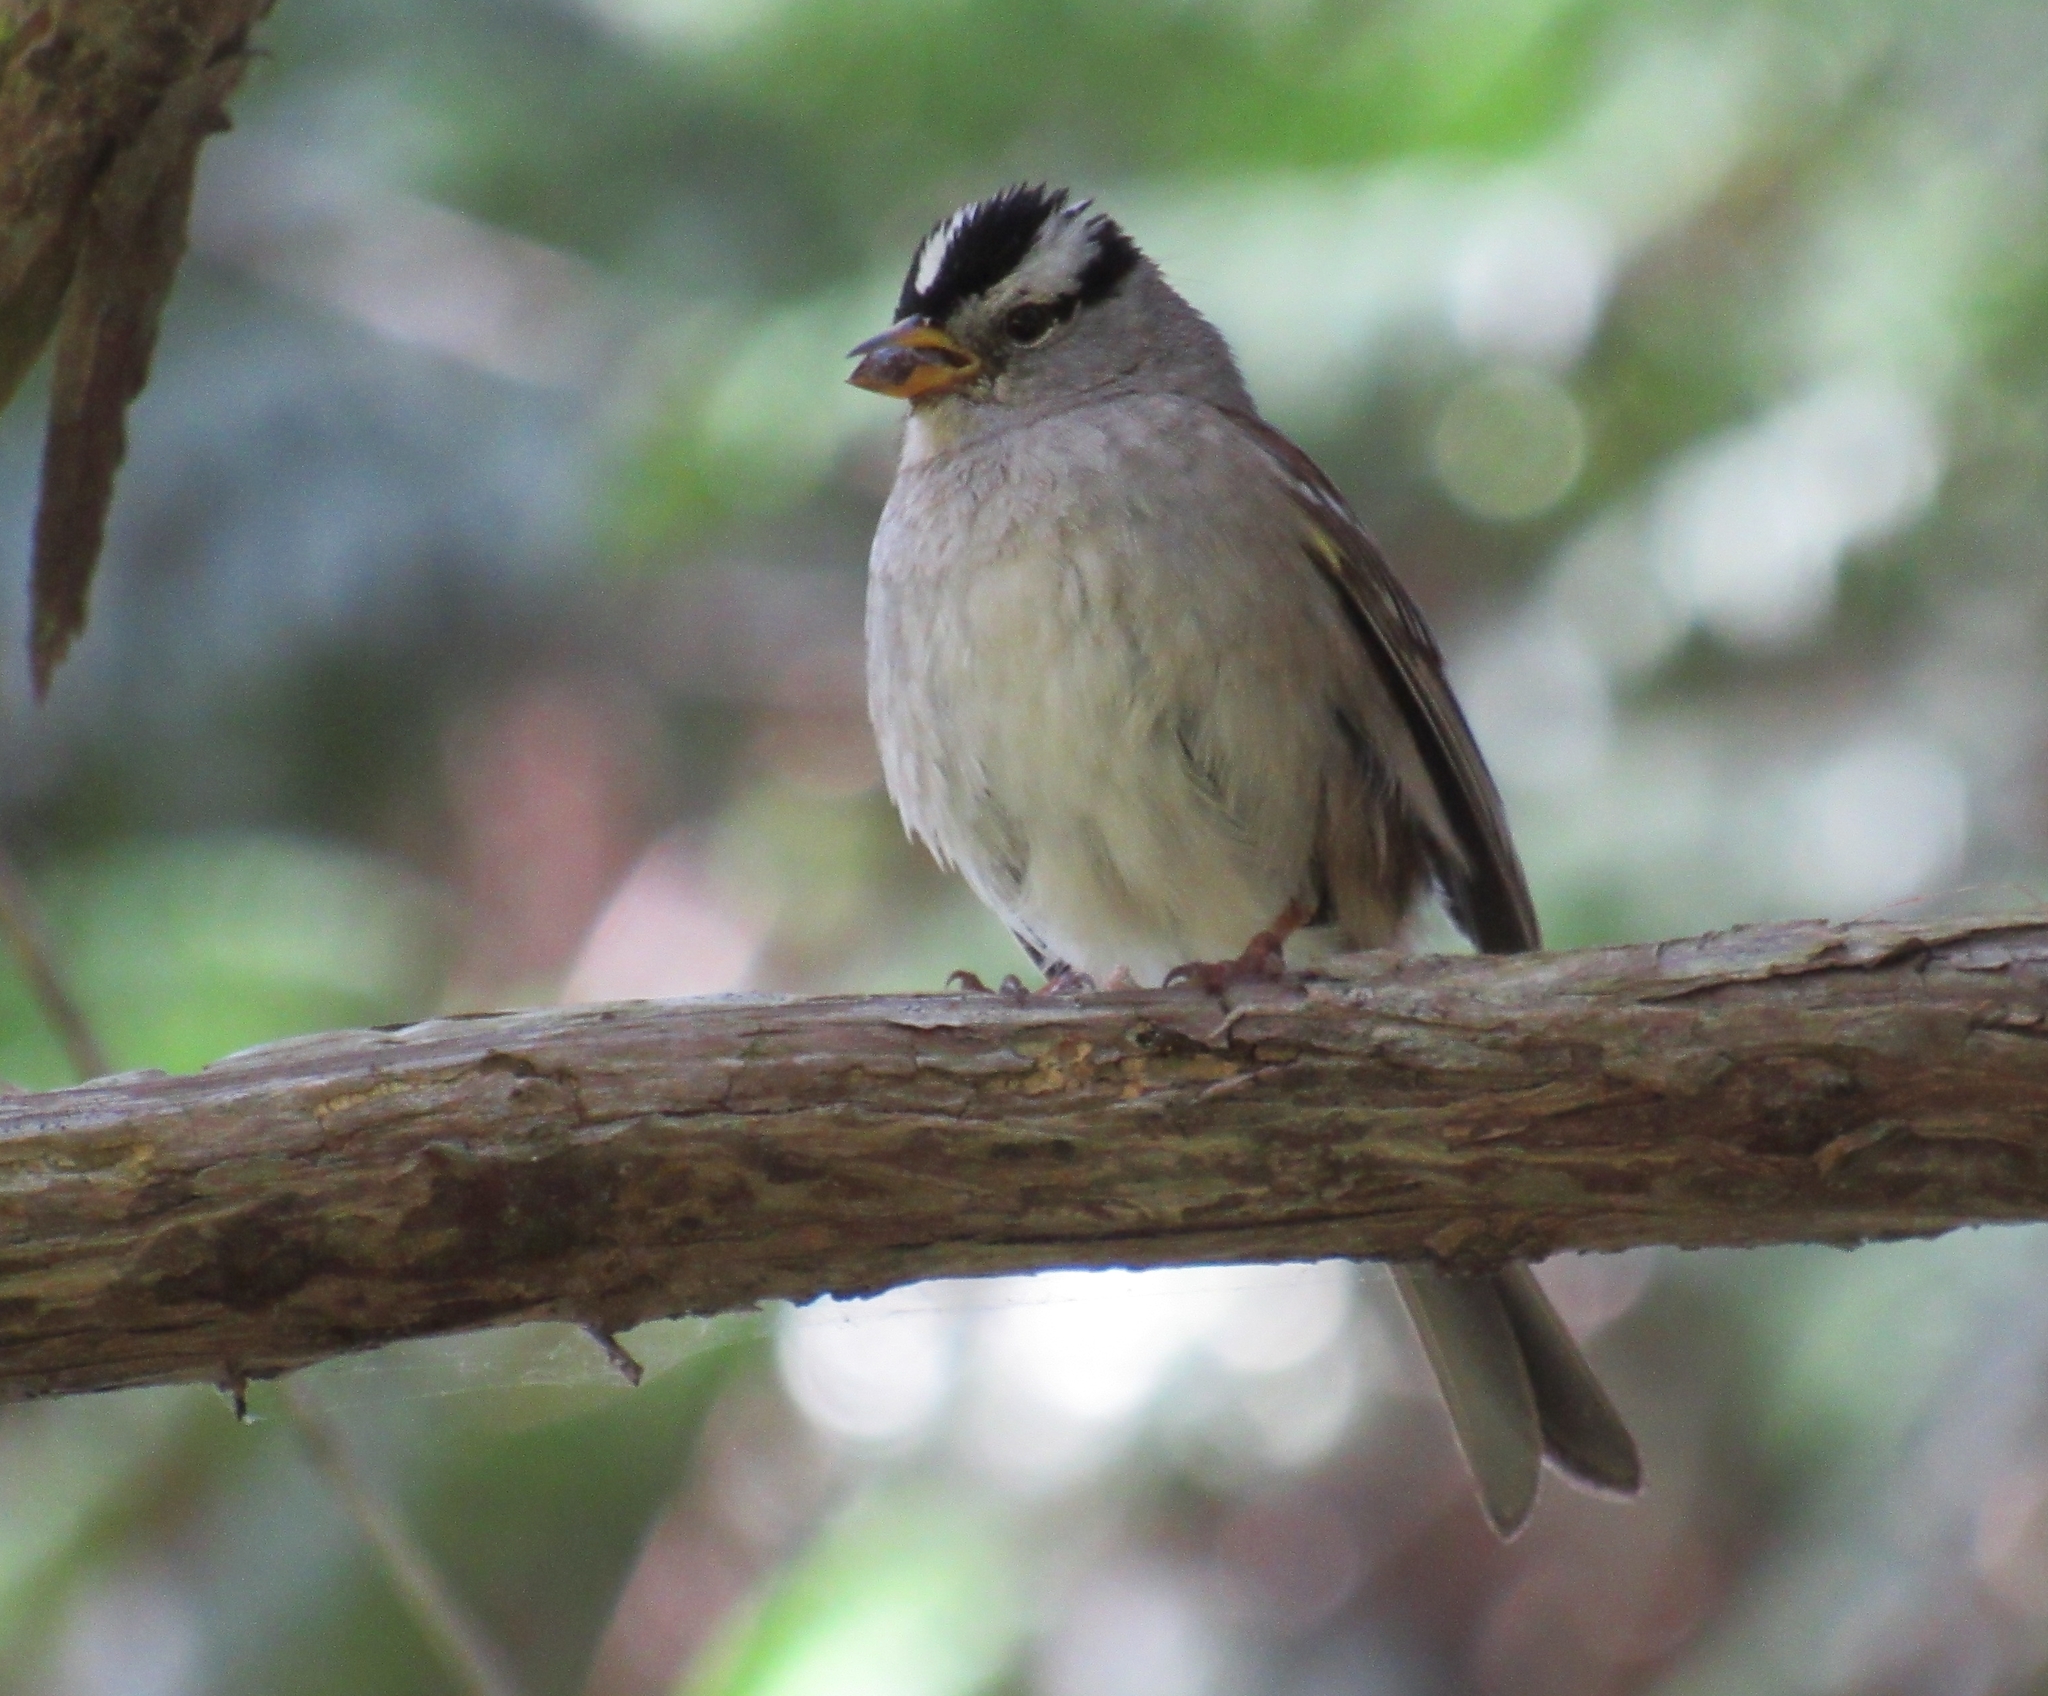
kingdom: Animalia
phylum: Chordata
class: Aves
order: Passeriformes
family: Passerellidae
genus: Zonotrichia
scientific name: Zonotrichia leucophrys
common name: White-crowned sparrow
